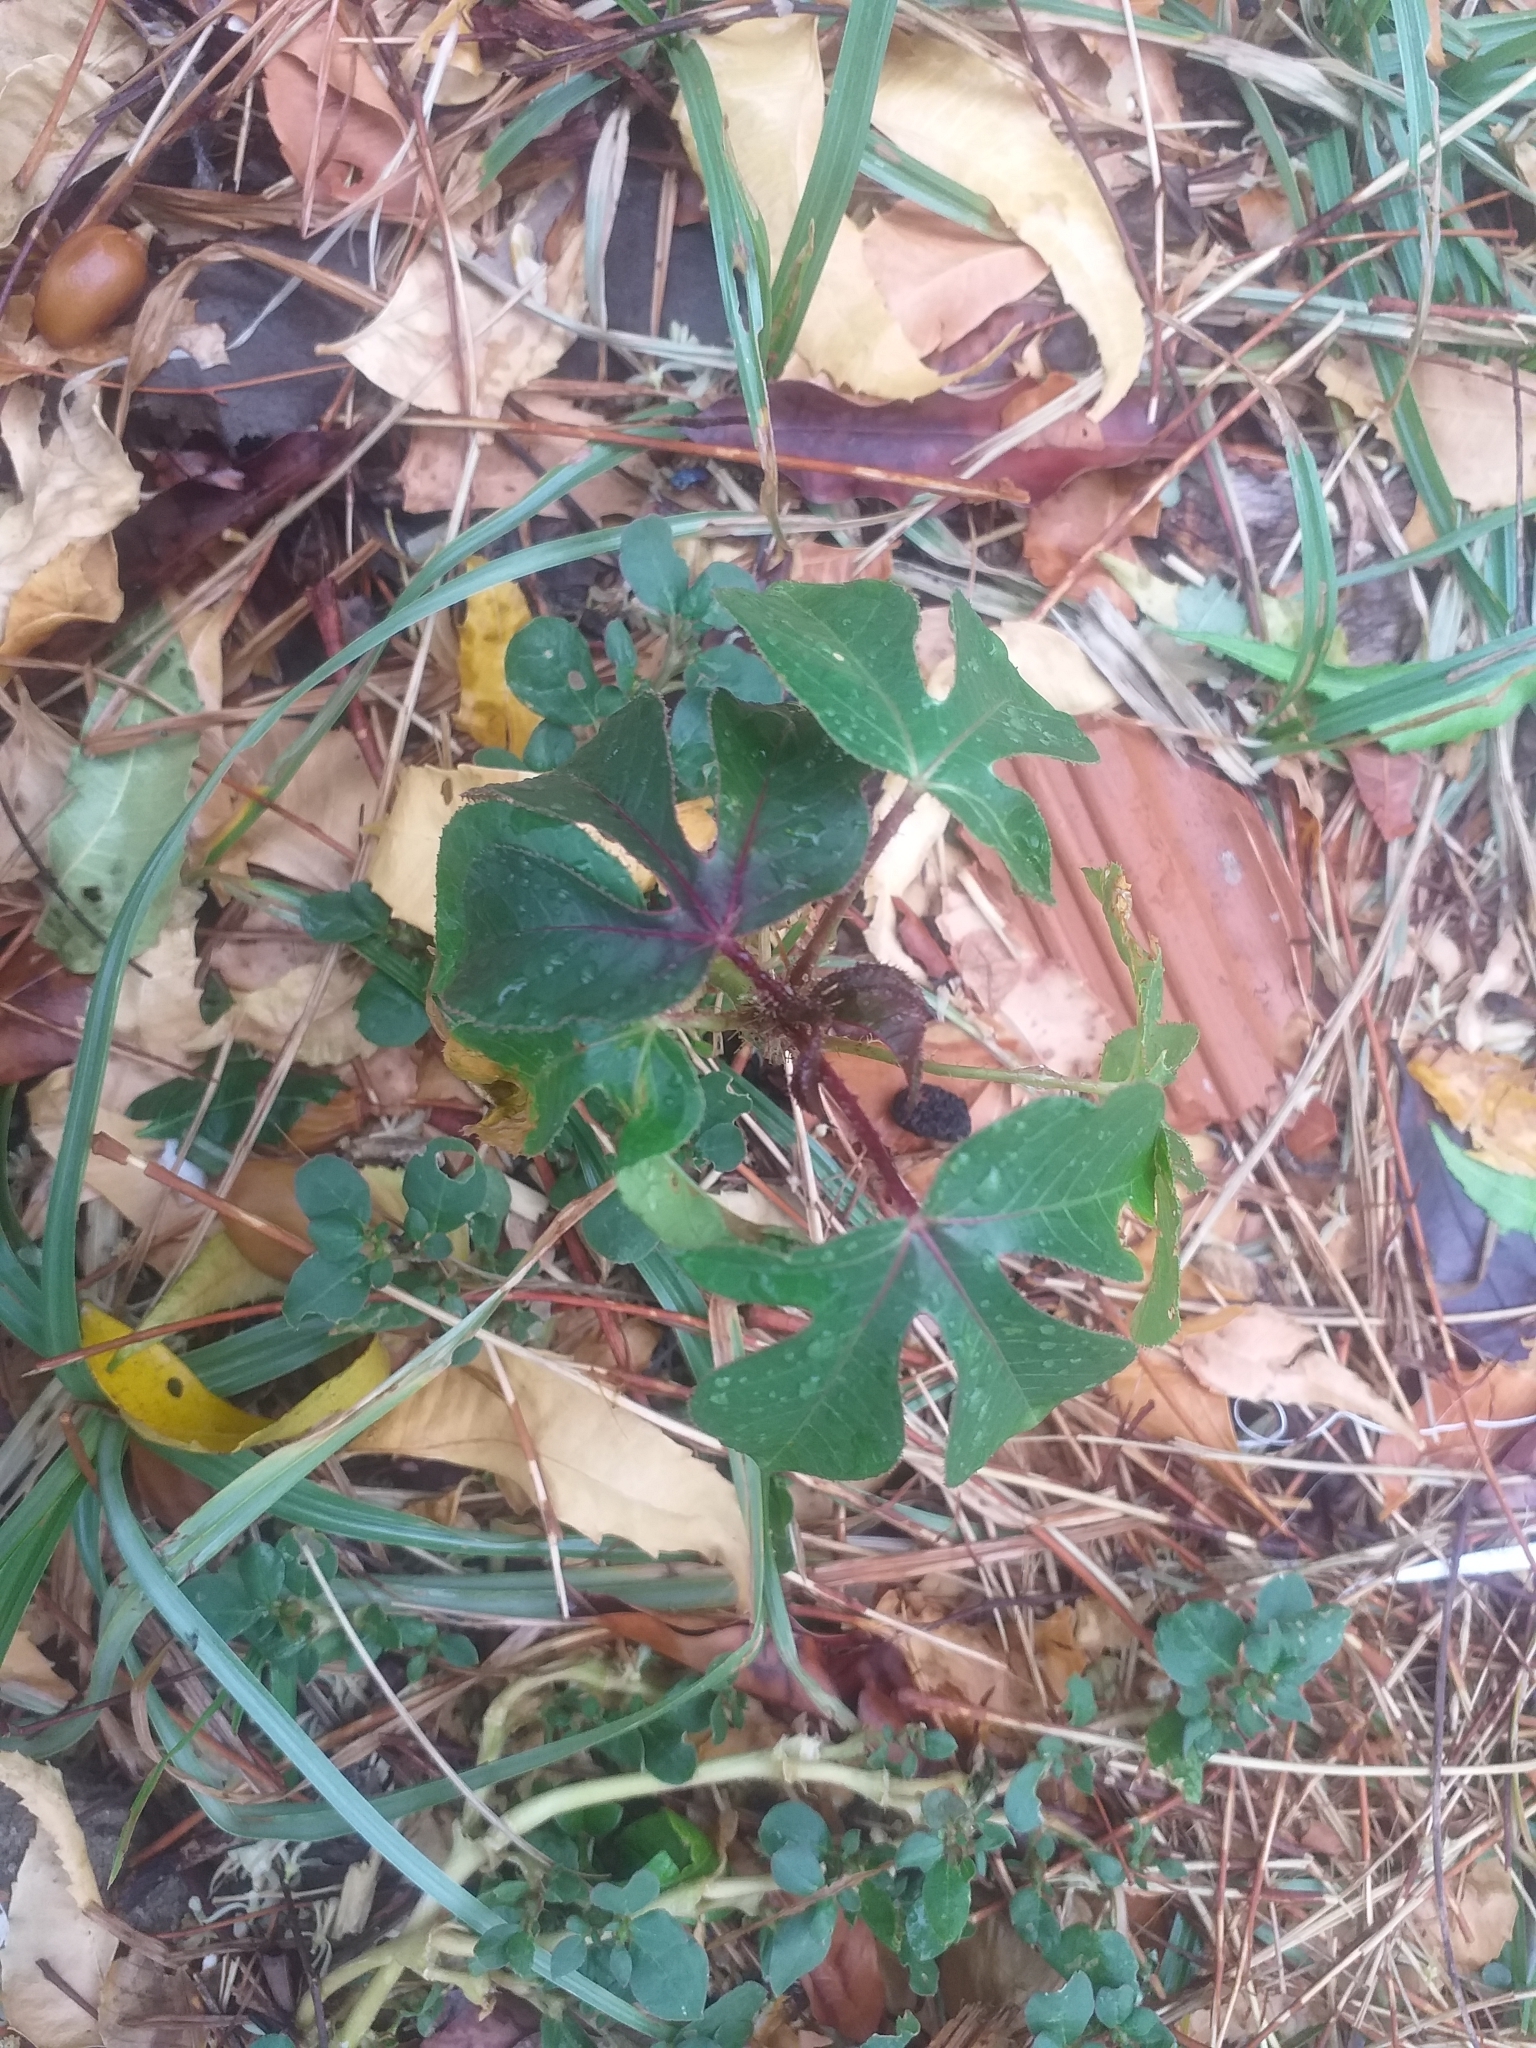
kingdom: Plantae
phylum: Tracheophyta
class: Magnoliopsida
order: Malpighiales
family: Euphorbiaceae
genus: Jatropha
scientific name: Jatropha gossypiifolia
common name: Bellyache bush
